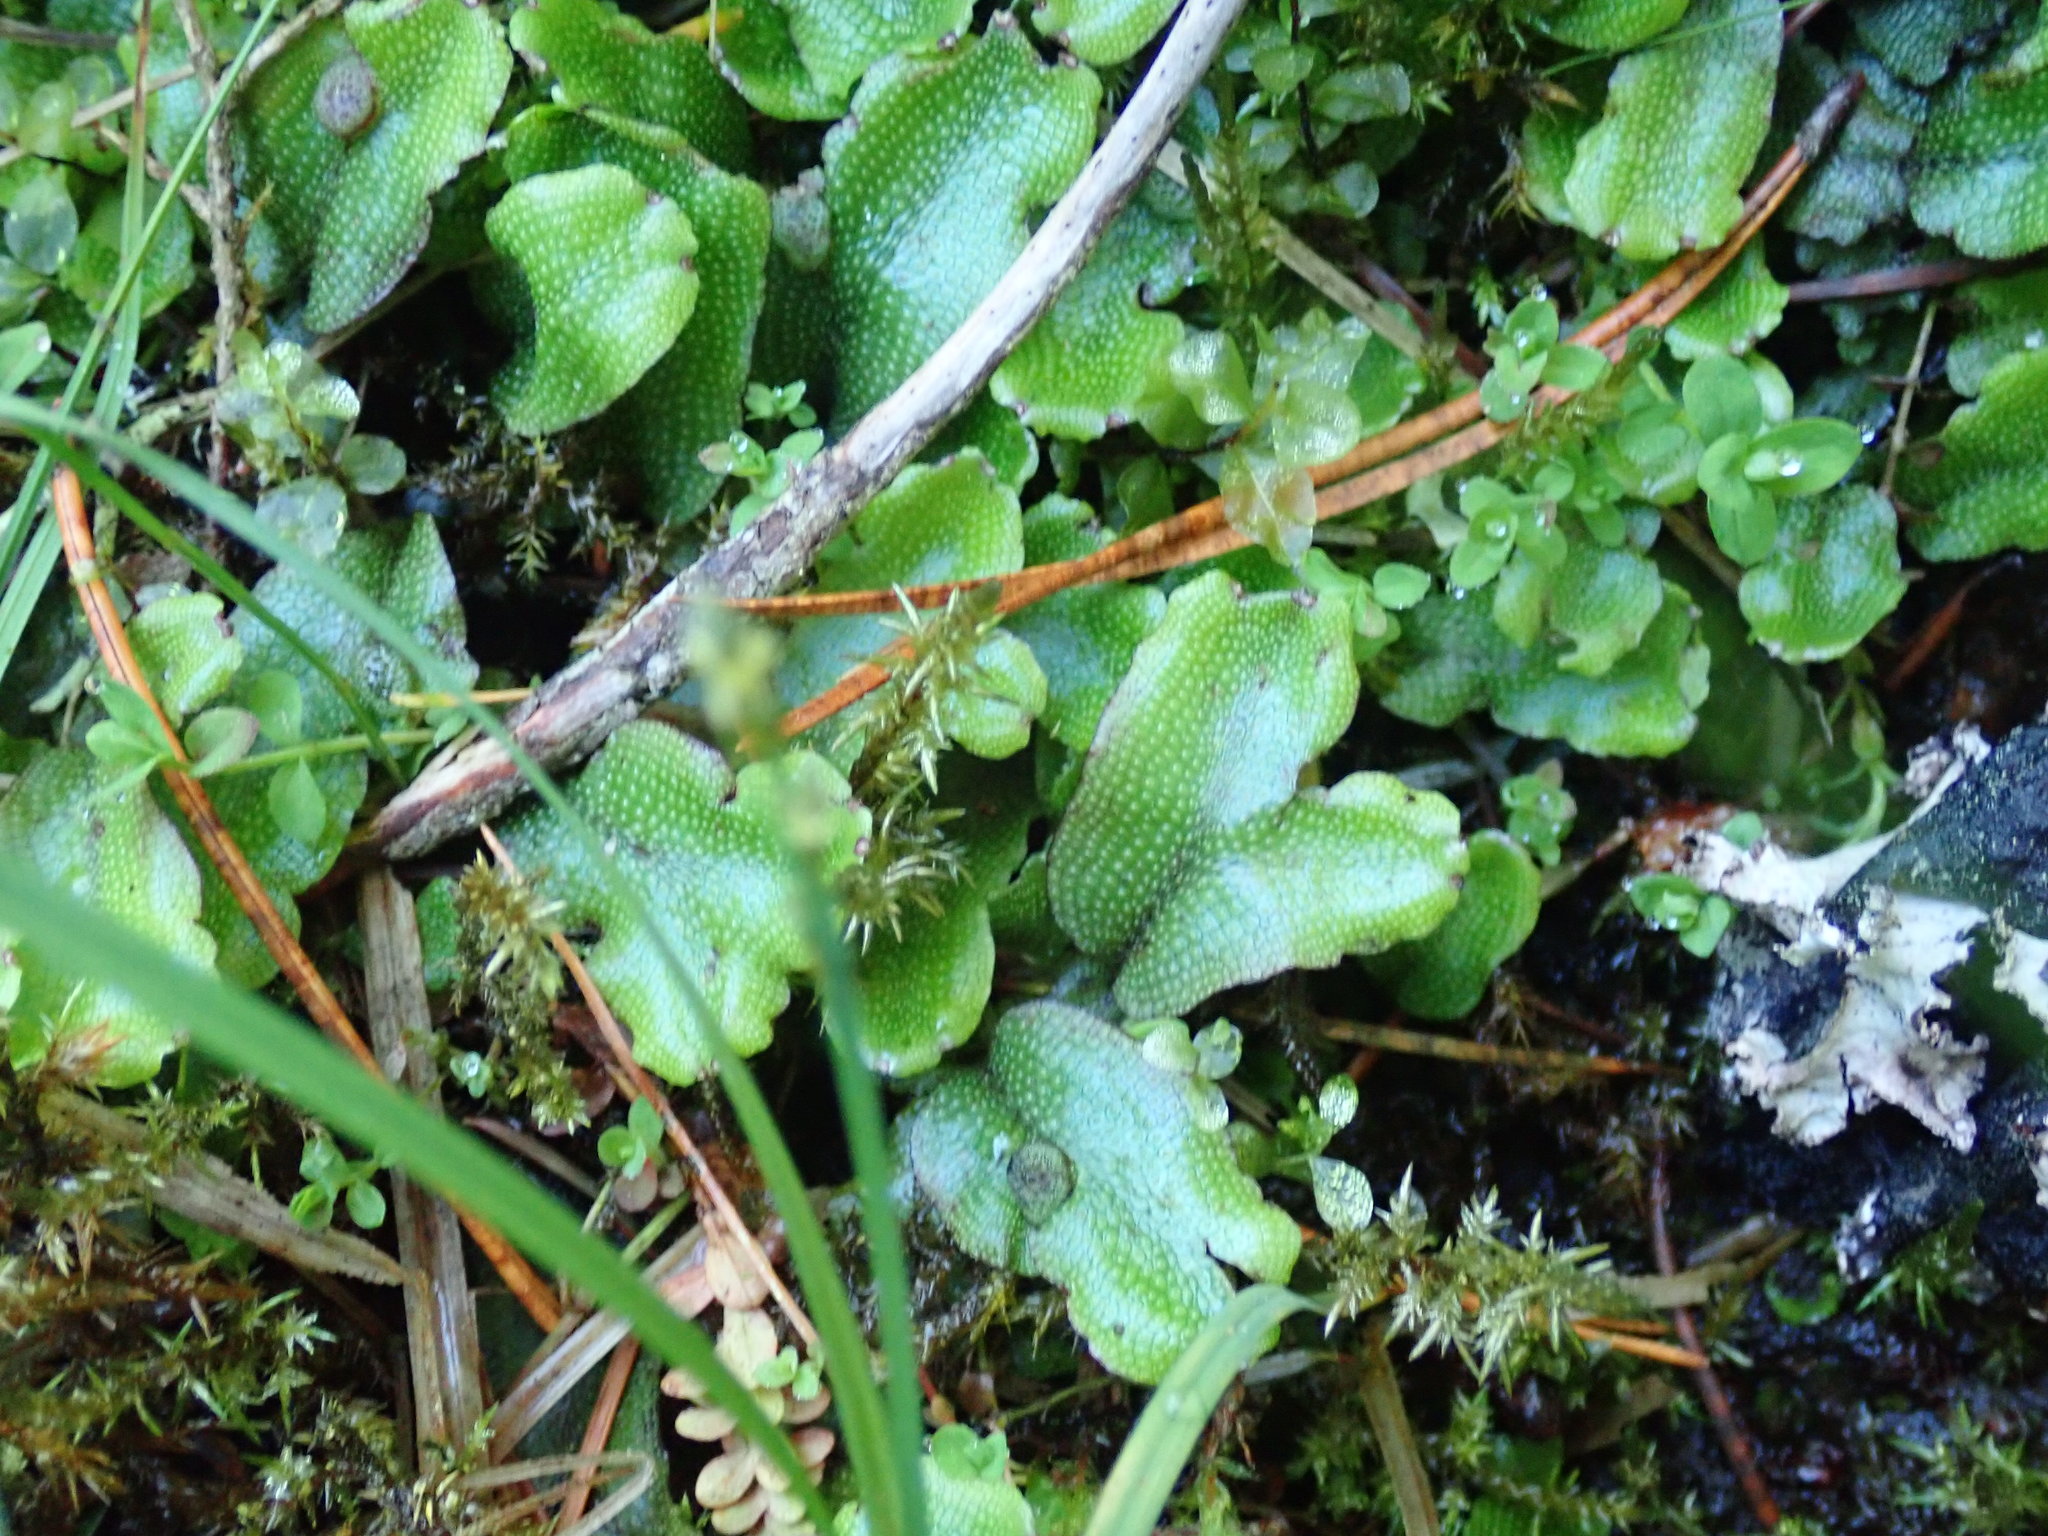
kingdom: Plantae
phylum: Marchantiophyta
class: Marchantiopsida
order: Marchantiales
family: Conocephalaceae
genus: Conocephalum
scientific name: Conocephalum salebrosum
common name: Cat-tongue liverwort
